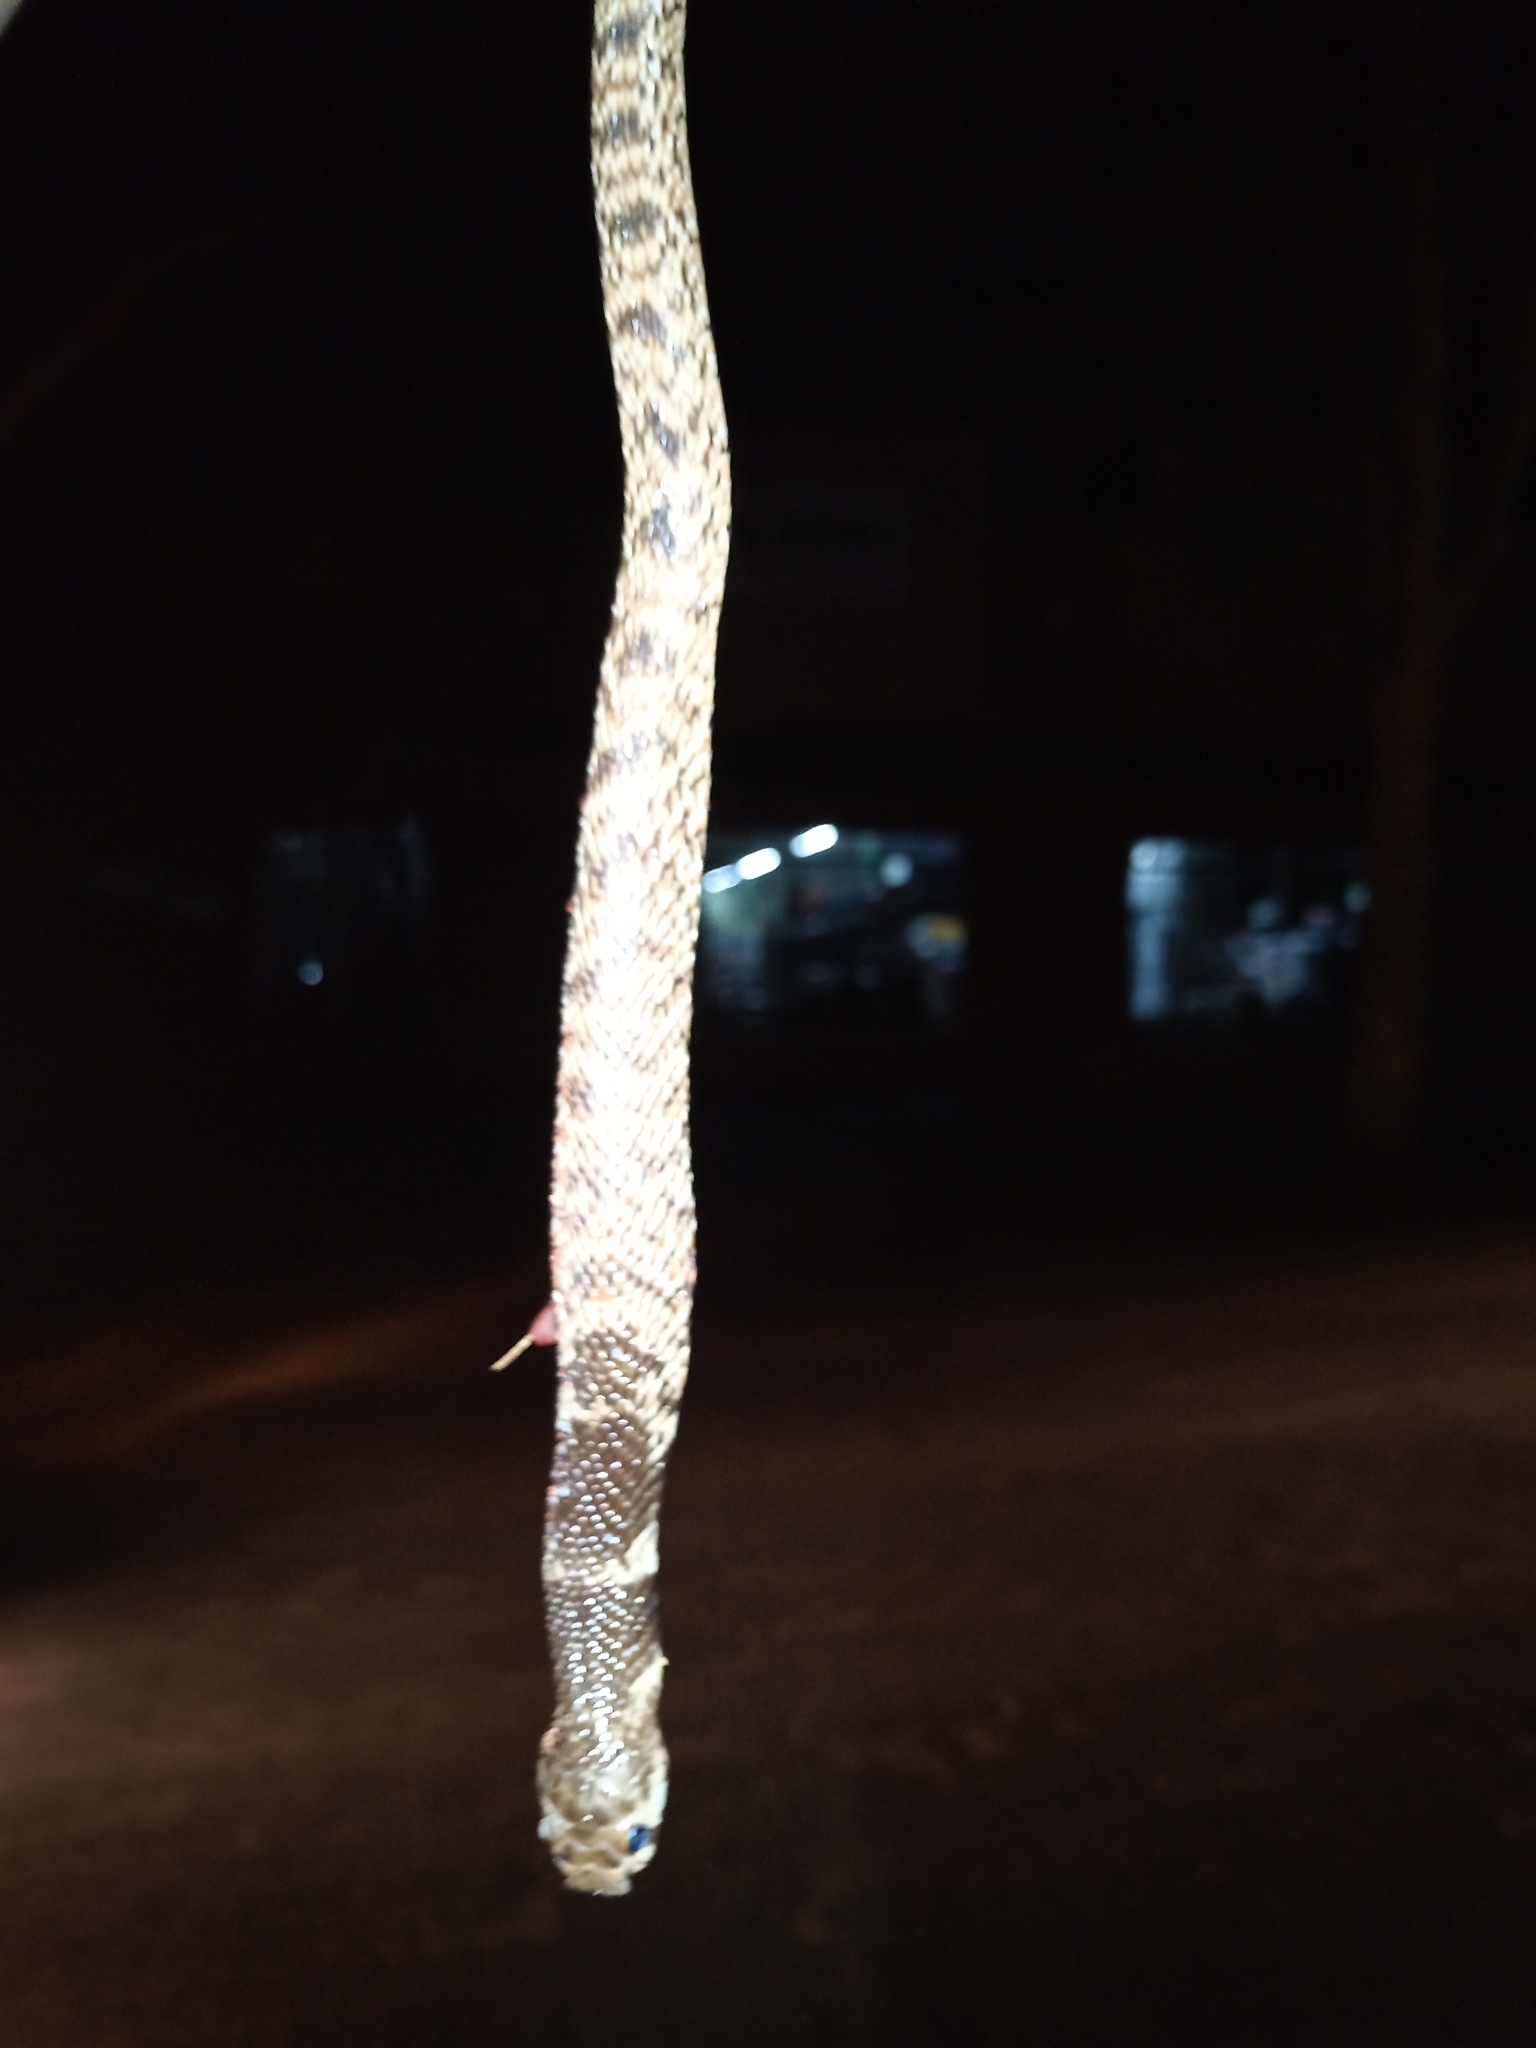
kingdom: Animalia
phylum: Chordata
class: Squamata
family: Elapidae
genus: Aspidelaps
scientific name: Aspidelaps scutatus
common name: Speckled shield cobra
